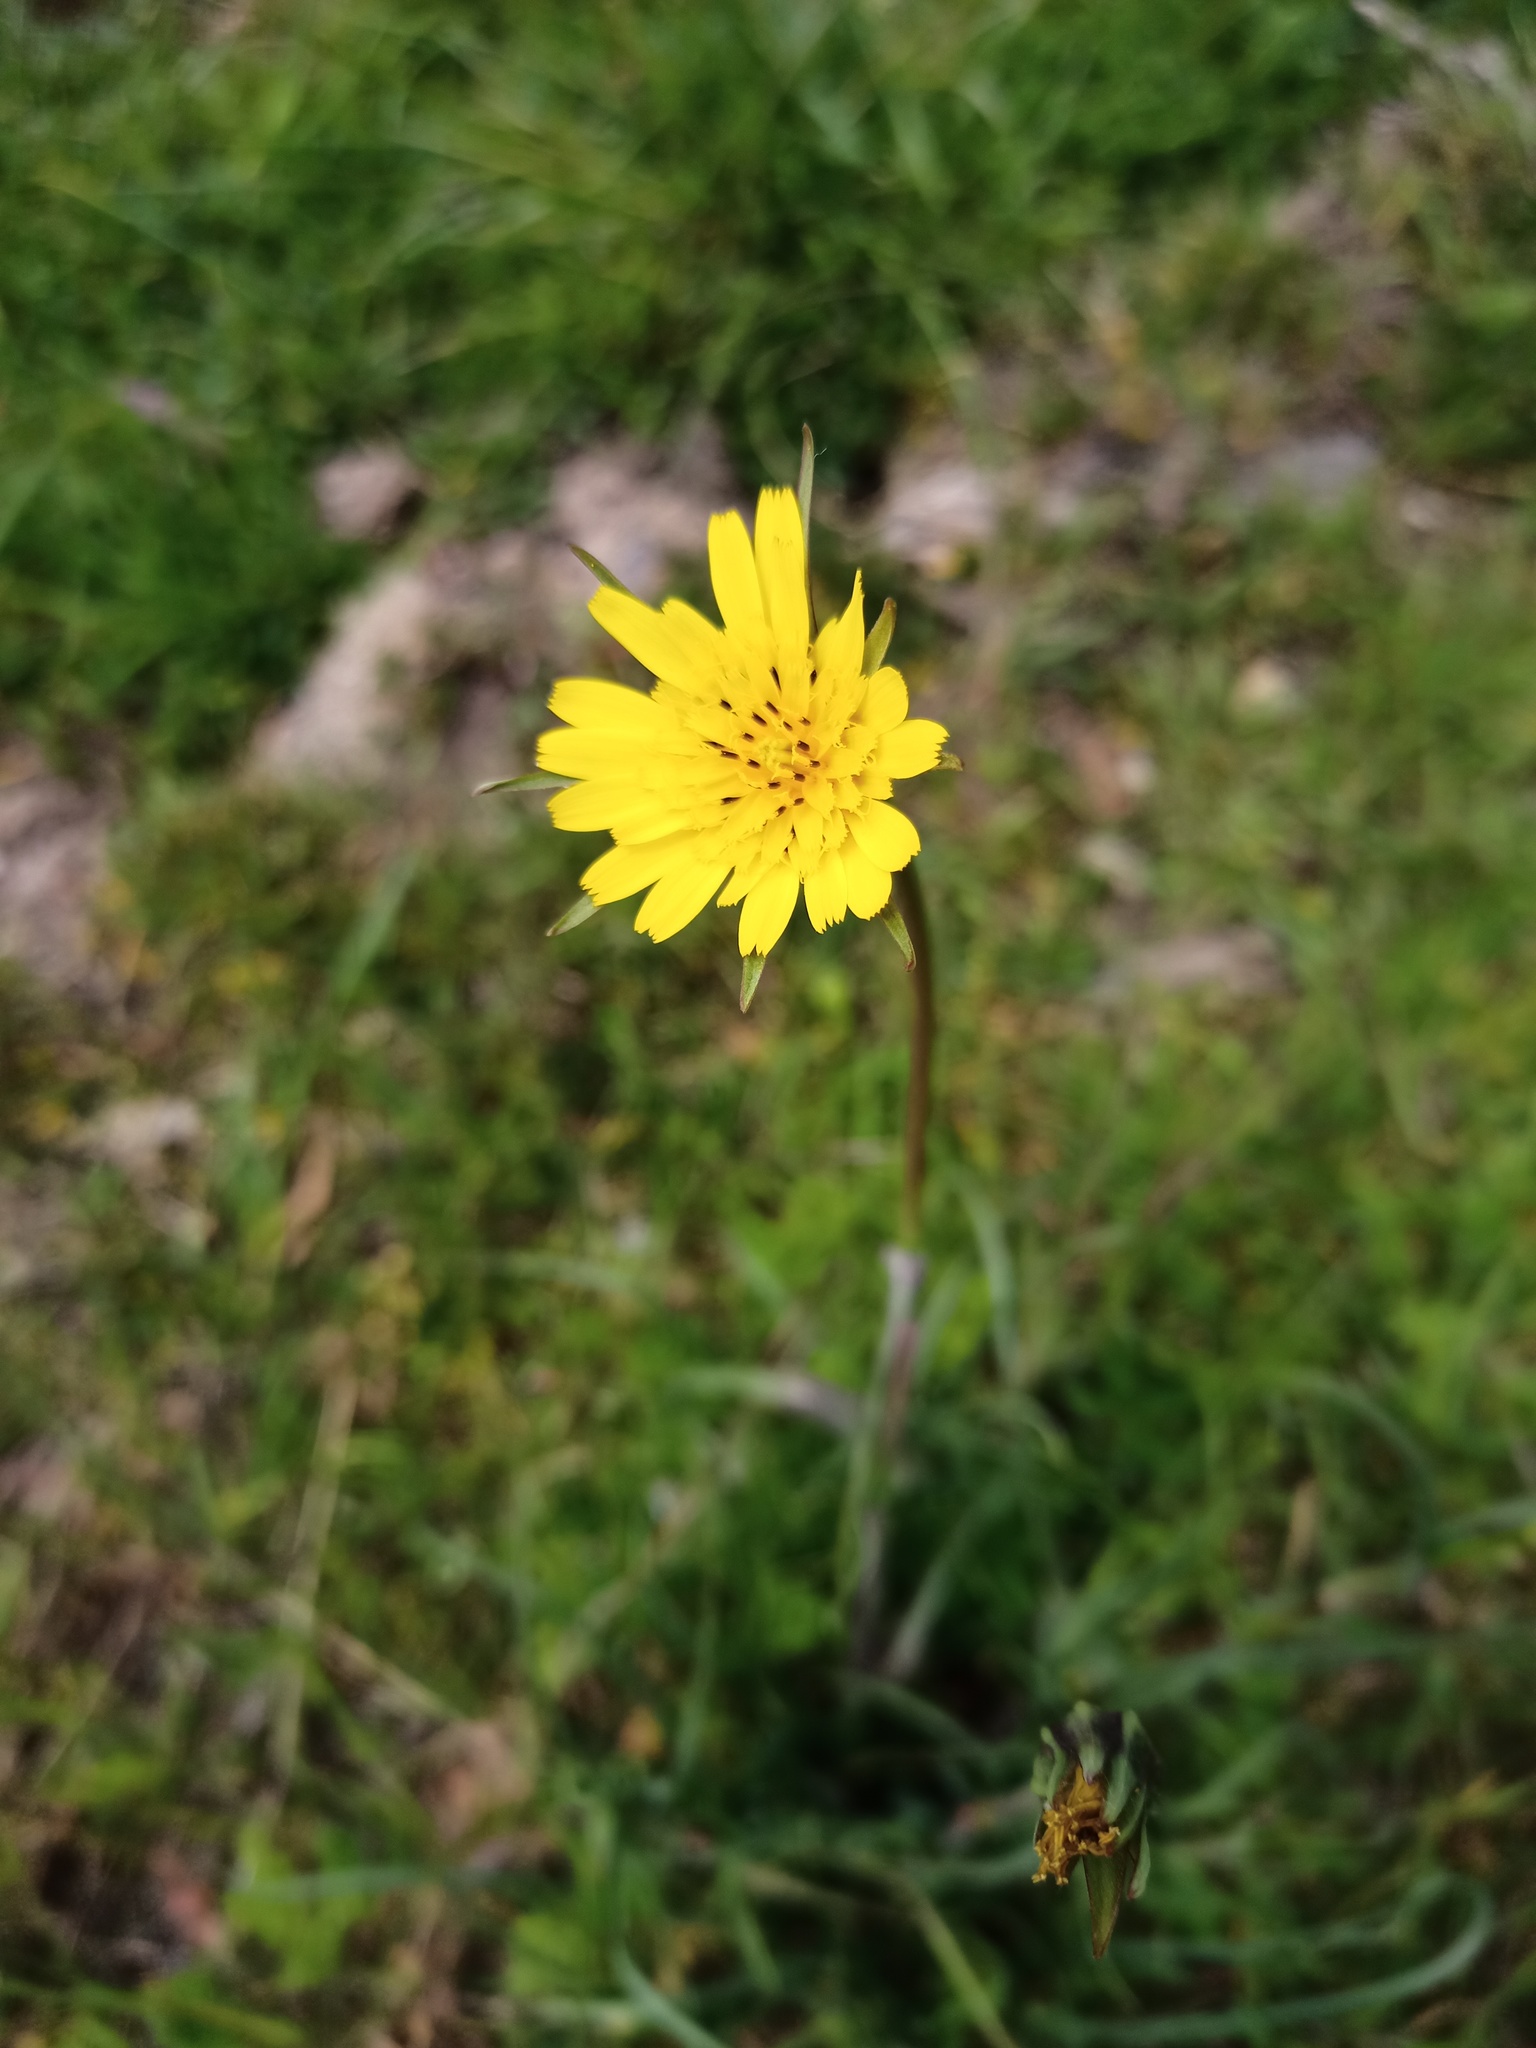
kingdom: Plantae
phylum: Tracheophyta
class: Magnoliopsida
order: Asterales
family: Asteraceae
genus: Tragopogon
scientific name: Tragopogon pratensis
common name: Goat's-beard
